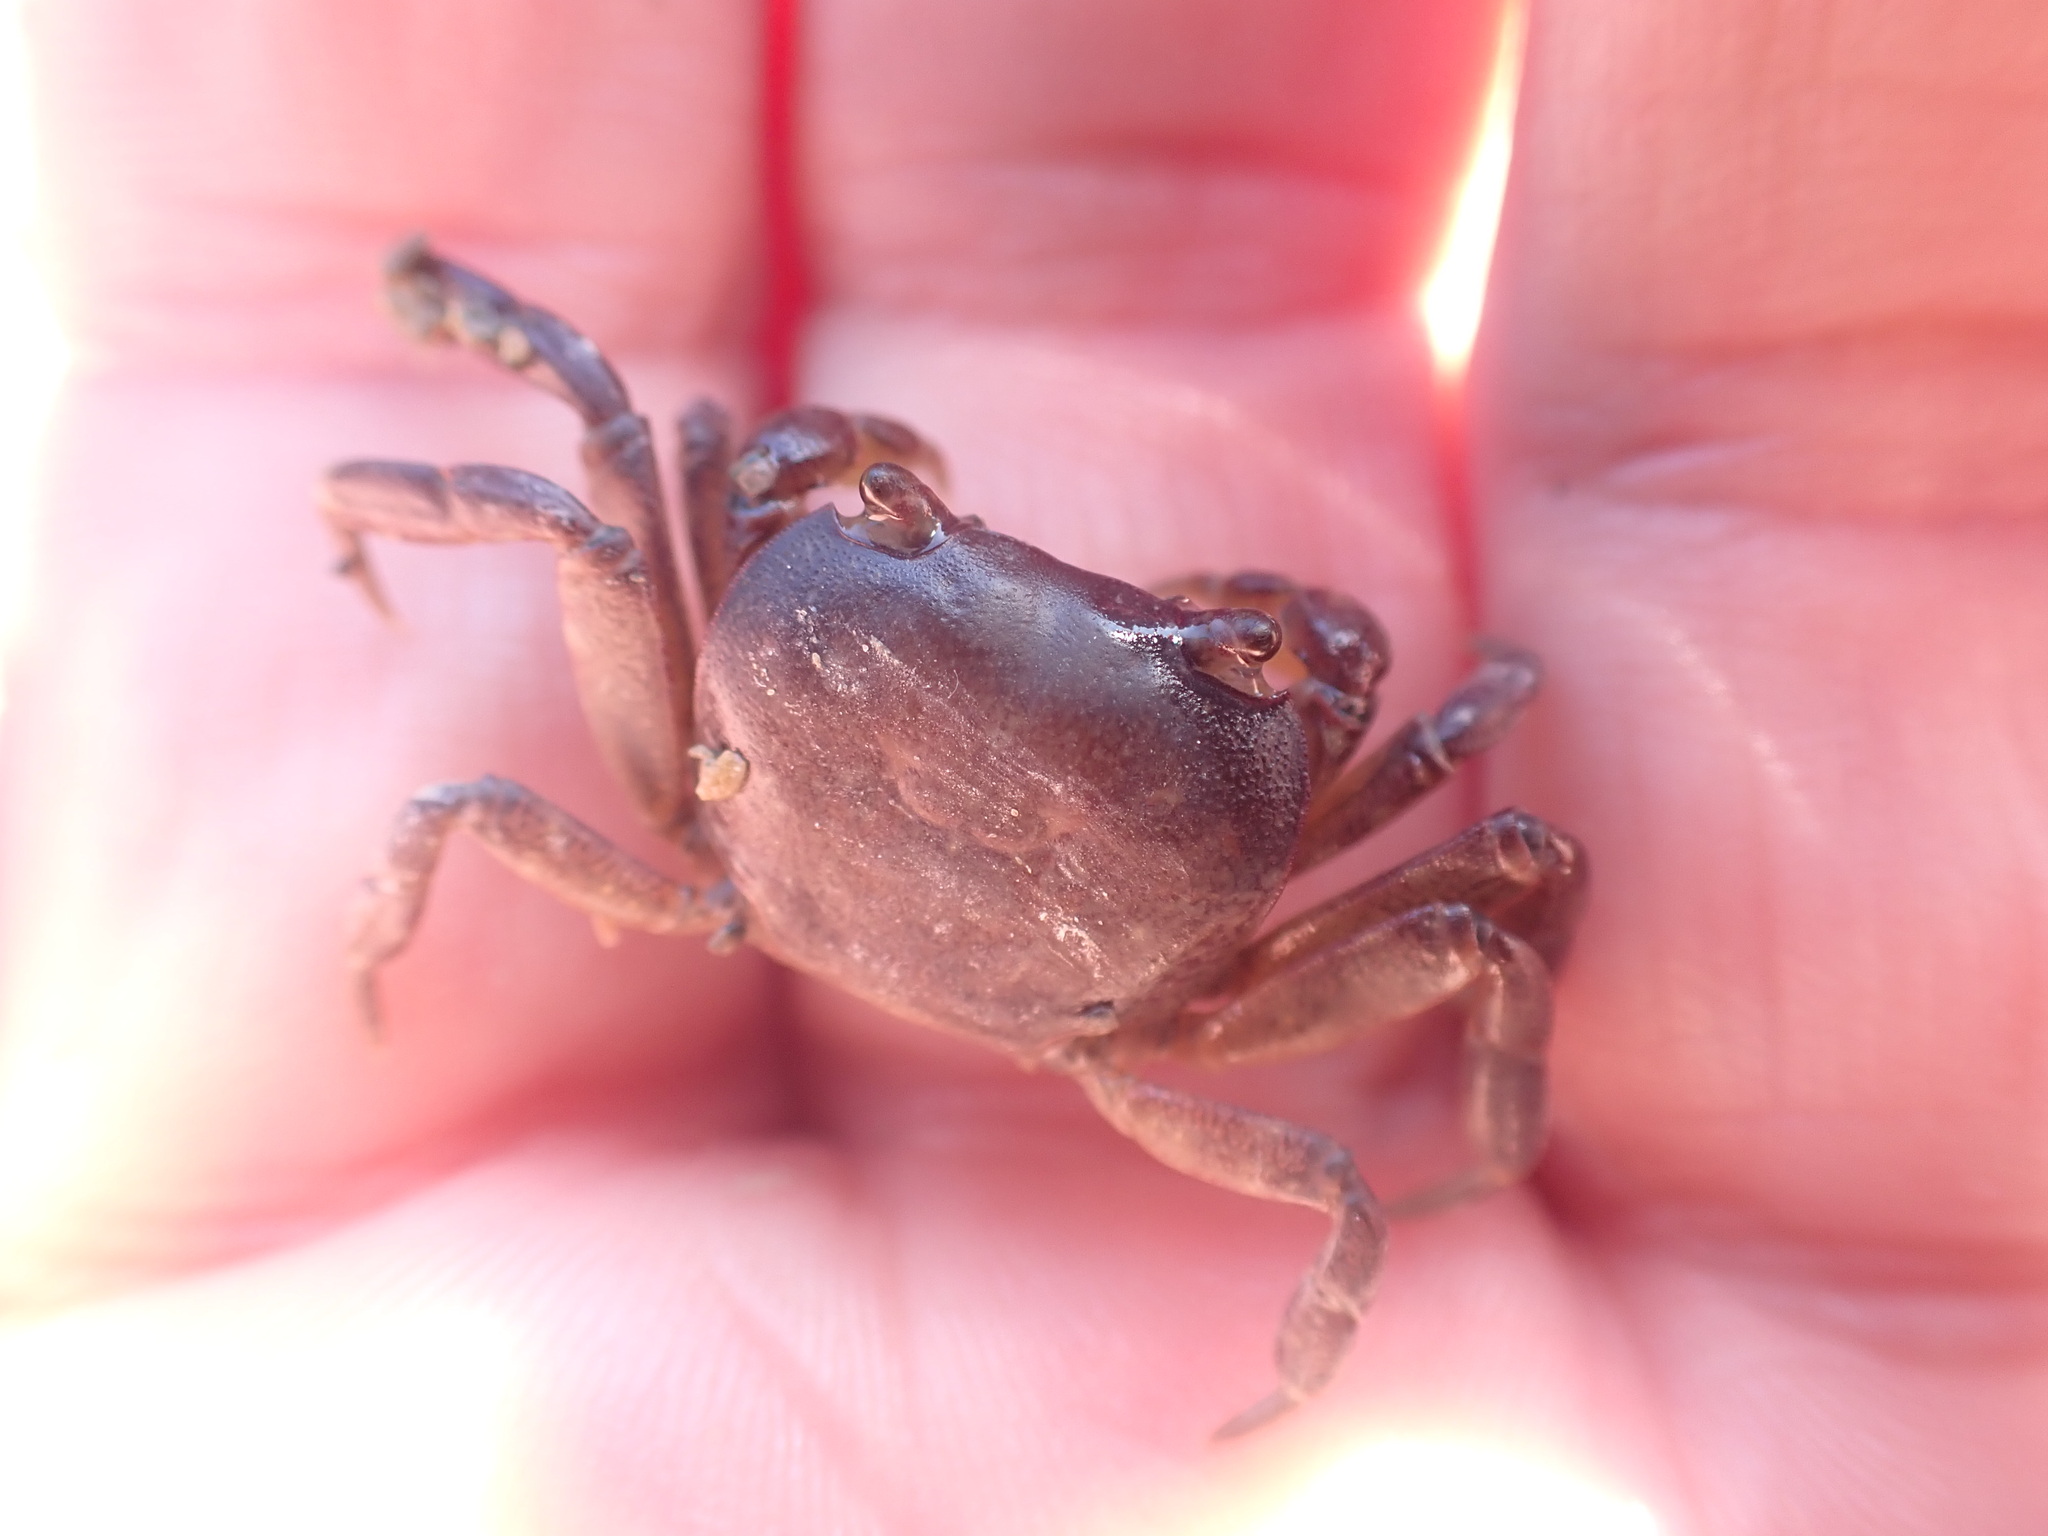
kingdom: Animalia
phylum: Arthropoda
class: Malacostraca
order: Decapoda
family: Varunidae
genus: Cyclograpsus
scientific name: Cyclograpsus lavauxi
